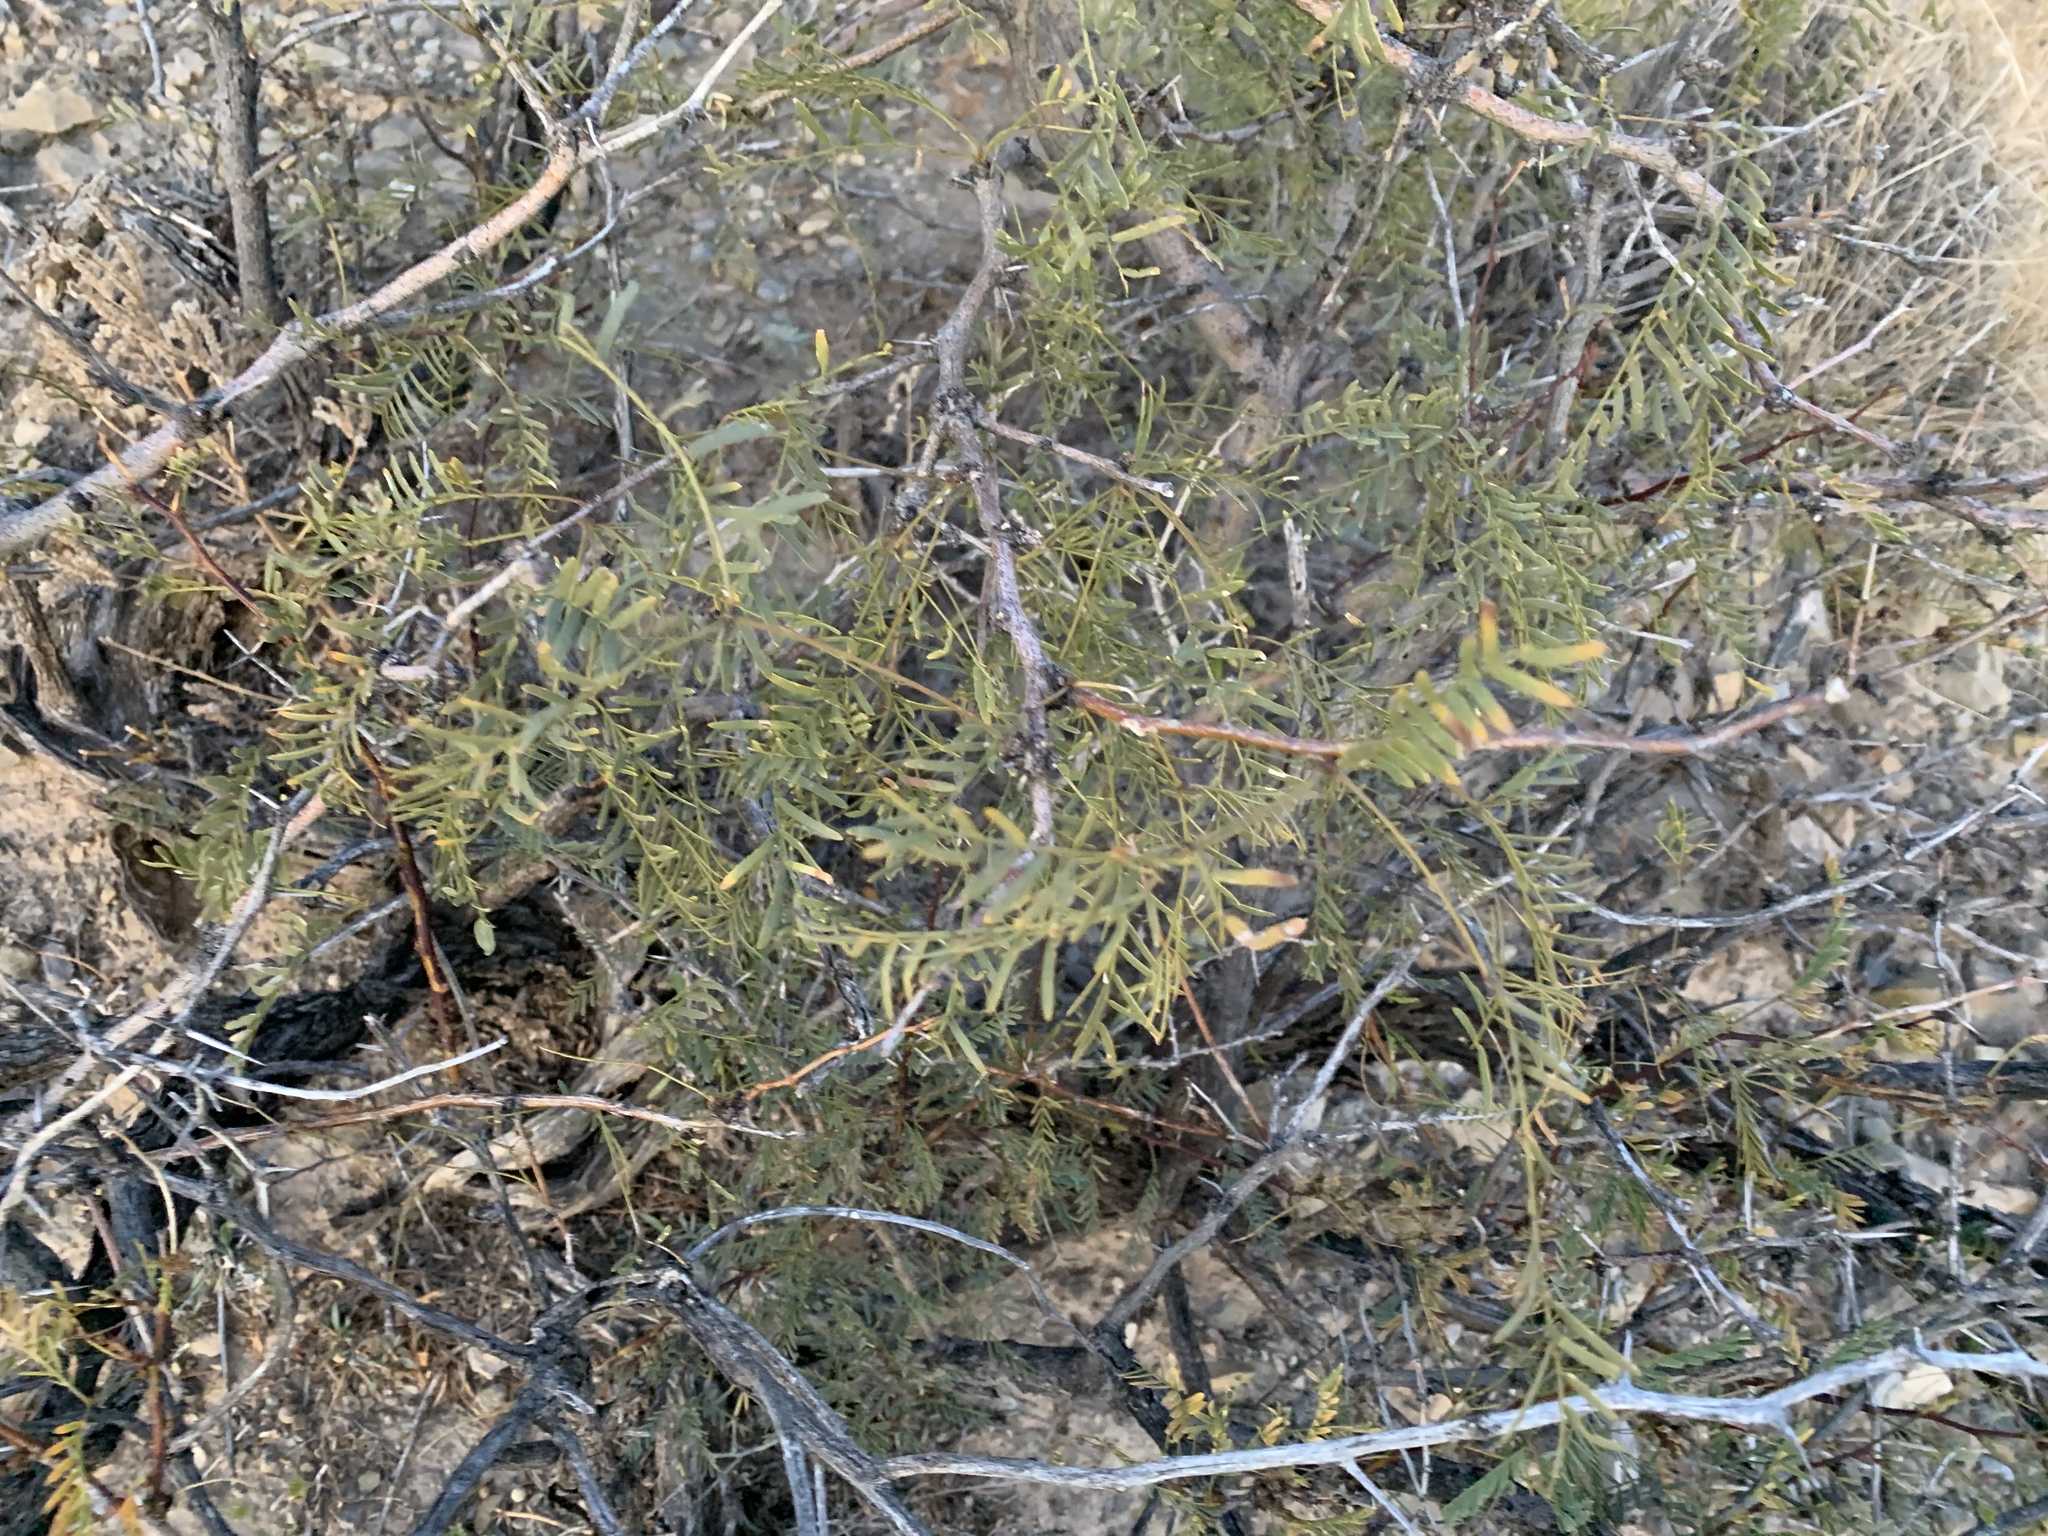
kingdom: Plantae
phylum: Tracheophyta
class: Magnoliopsida
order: Fabales
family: Fabaceae
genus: Prosopis
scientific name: Prosopis glandulosa
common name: Honey mesquite
